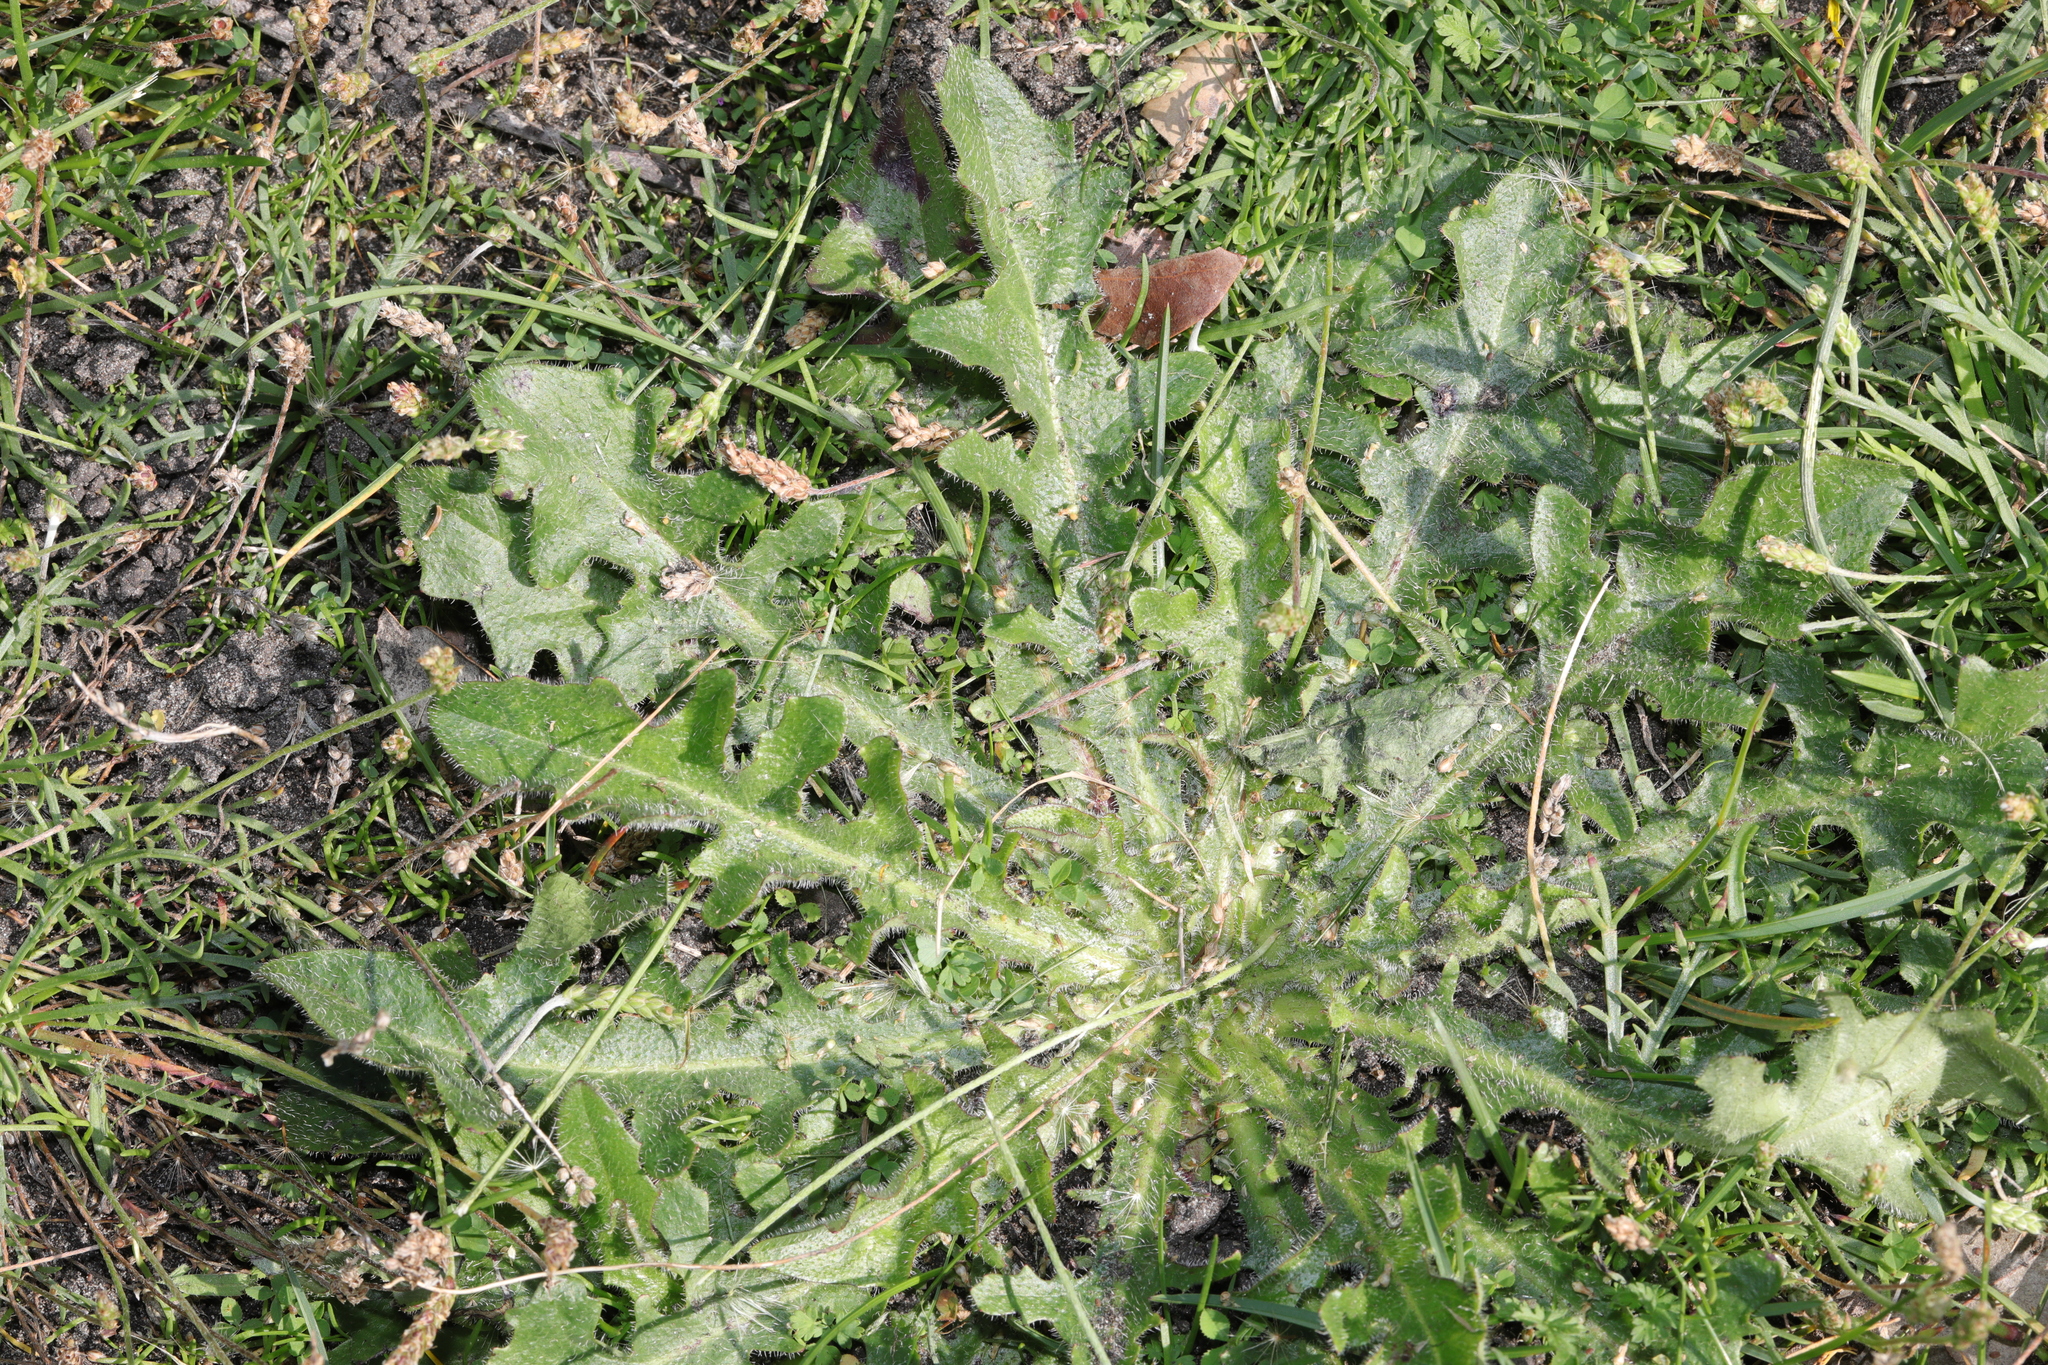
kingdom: Plantae
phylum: Tracheophyta
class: Magnoliopsida
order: Asterales
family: Asteraceae
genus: Hypochaeris
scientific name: Hypochaeris radicata
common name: Flatweed
